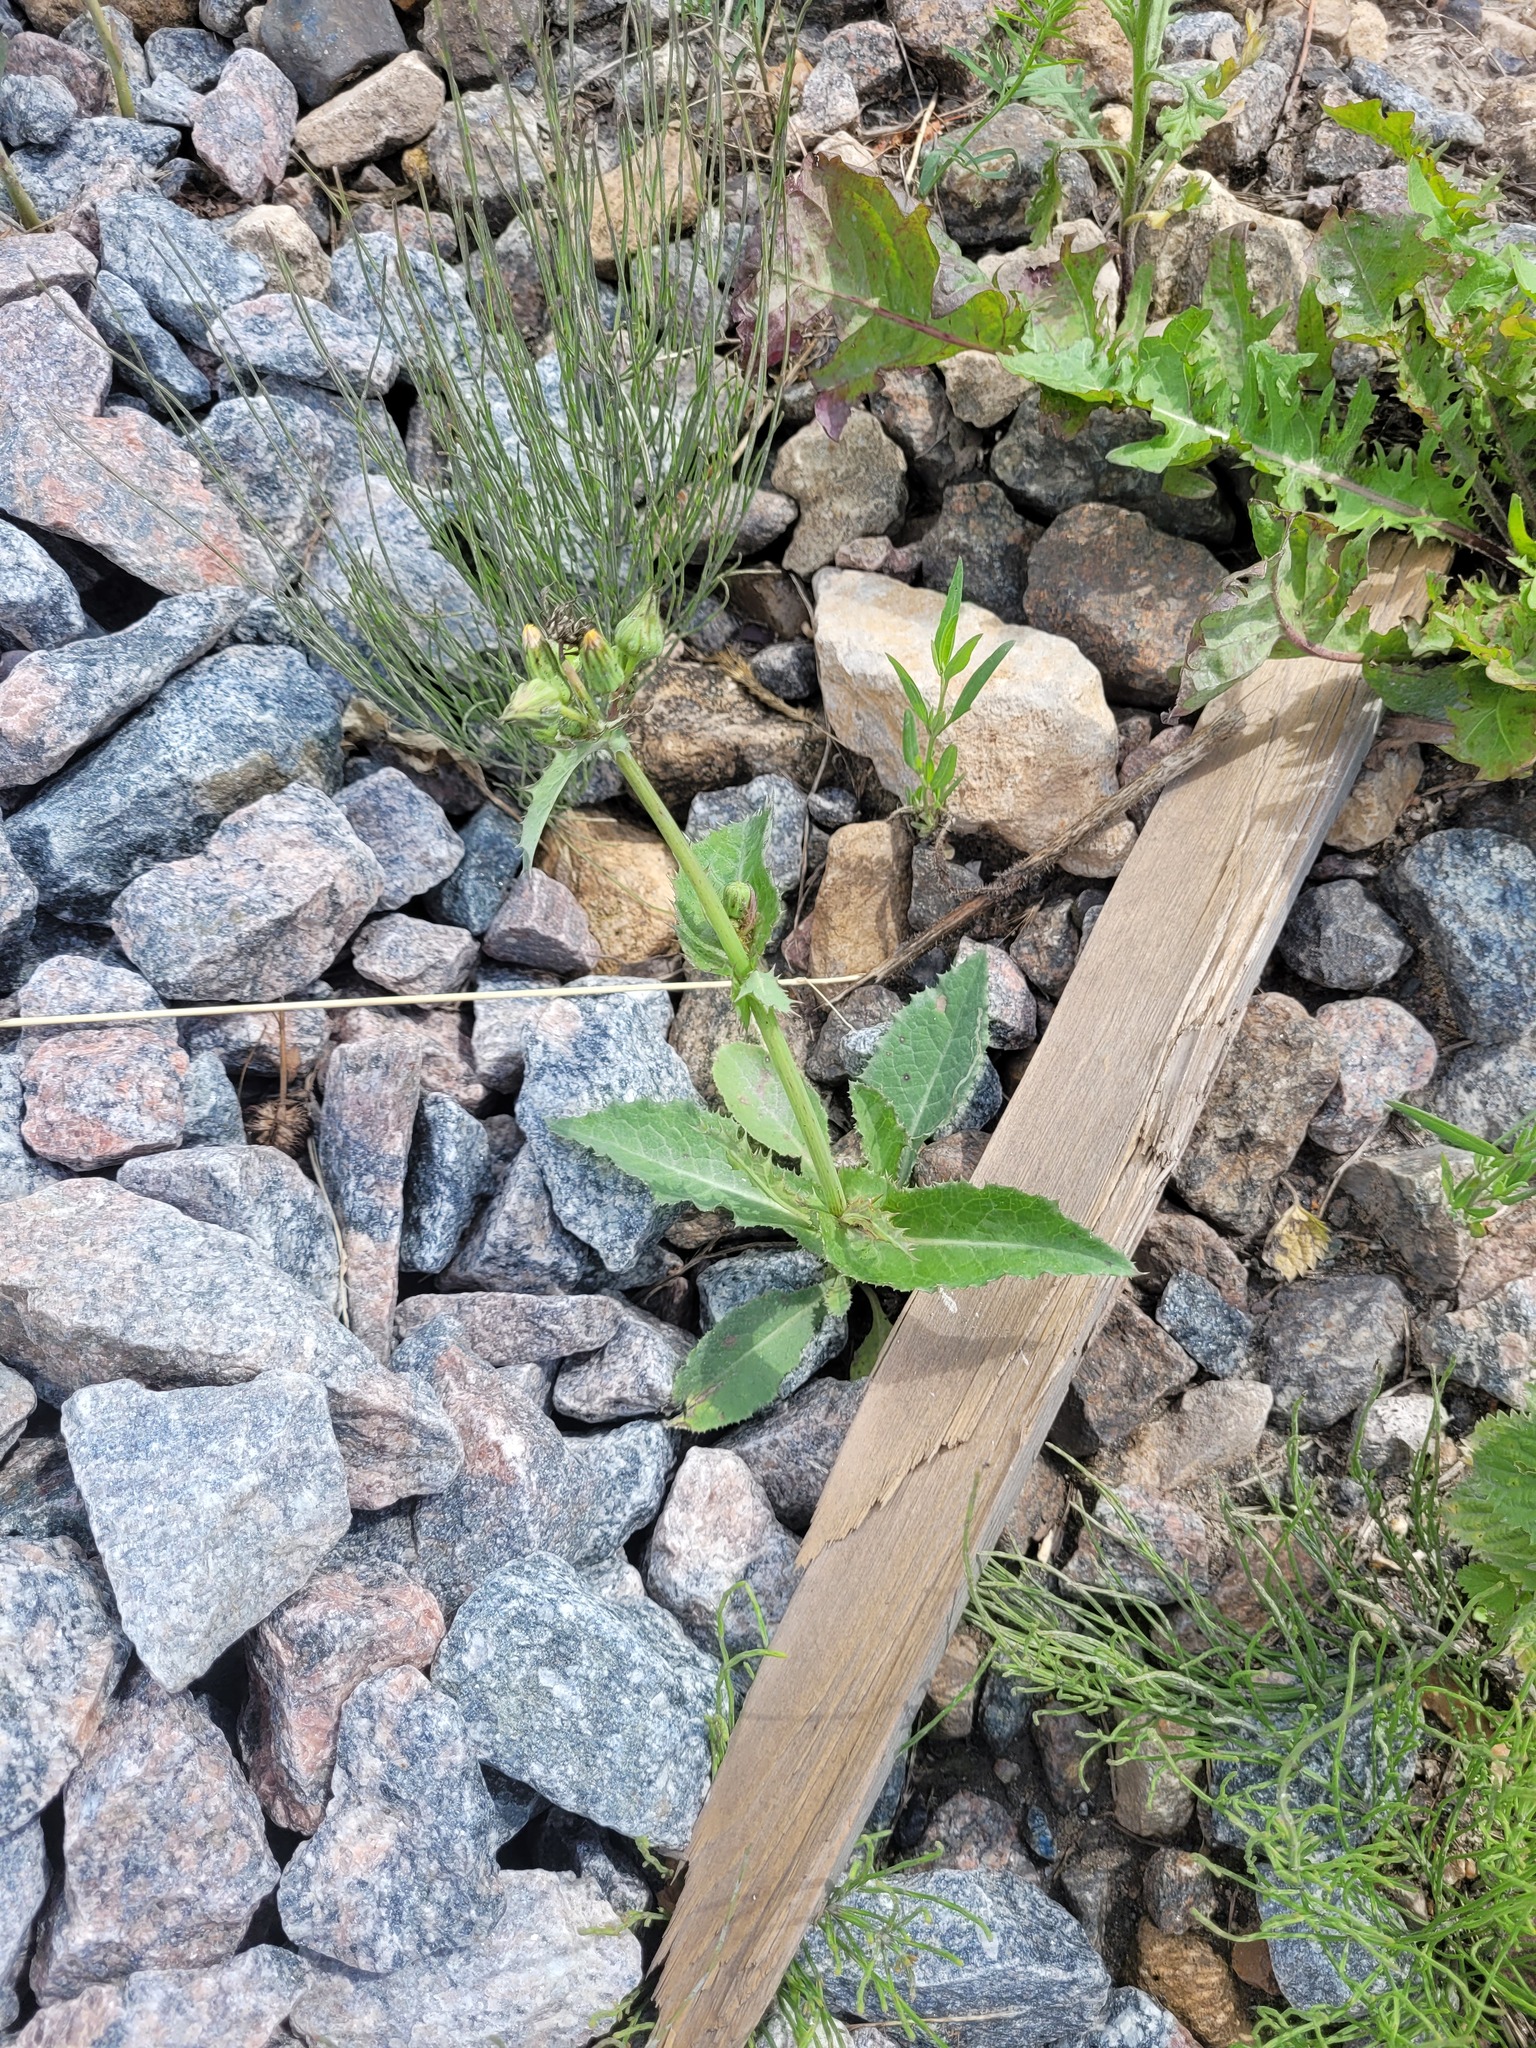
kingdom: Plantae
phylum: Tracheophyta
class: Magnoliopsida
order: Asterales
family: Asteraceae
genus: Sonchus
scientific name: Sonchus asper
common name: Prickly sow-thistle
